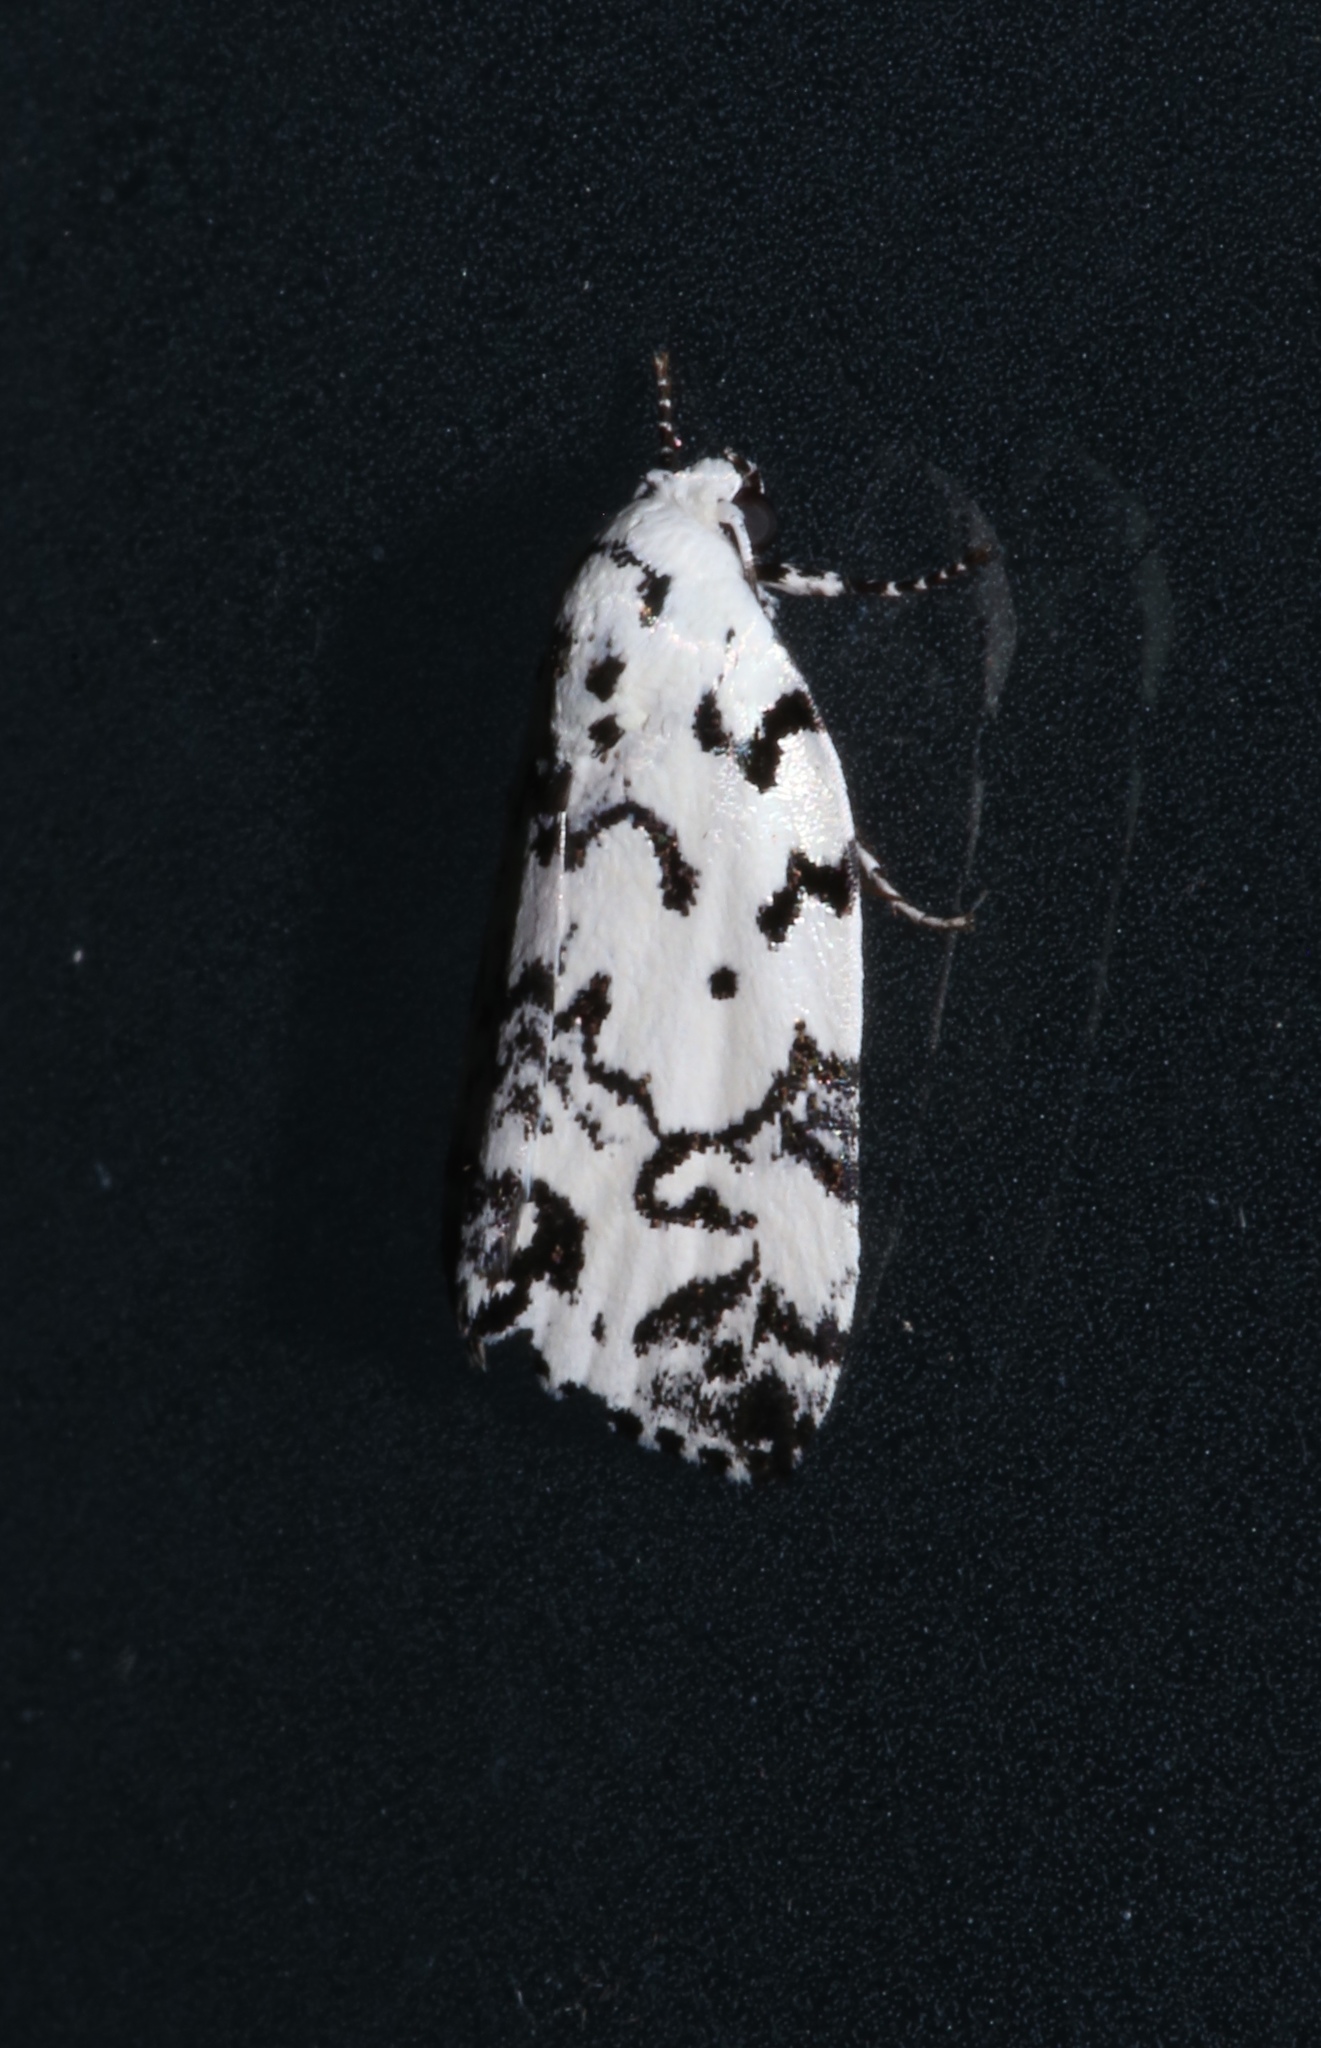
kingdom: Animalia
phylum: Arthropoda
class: Insecta
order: Lepidoptera
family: Noctuidae
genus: Polygrammate
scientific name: Polygrammate hebraeicum
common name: Hebrew moth
